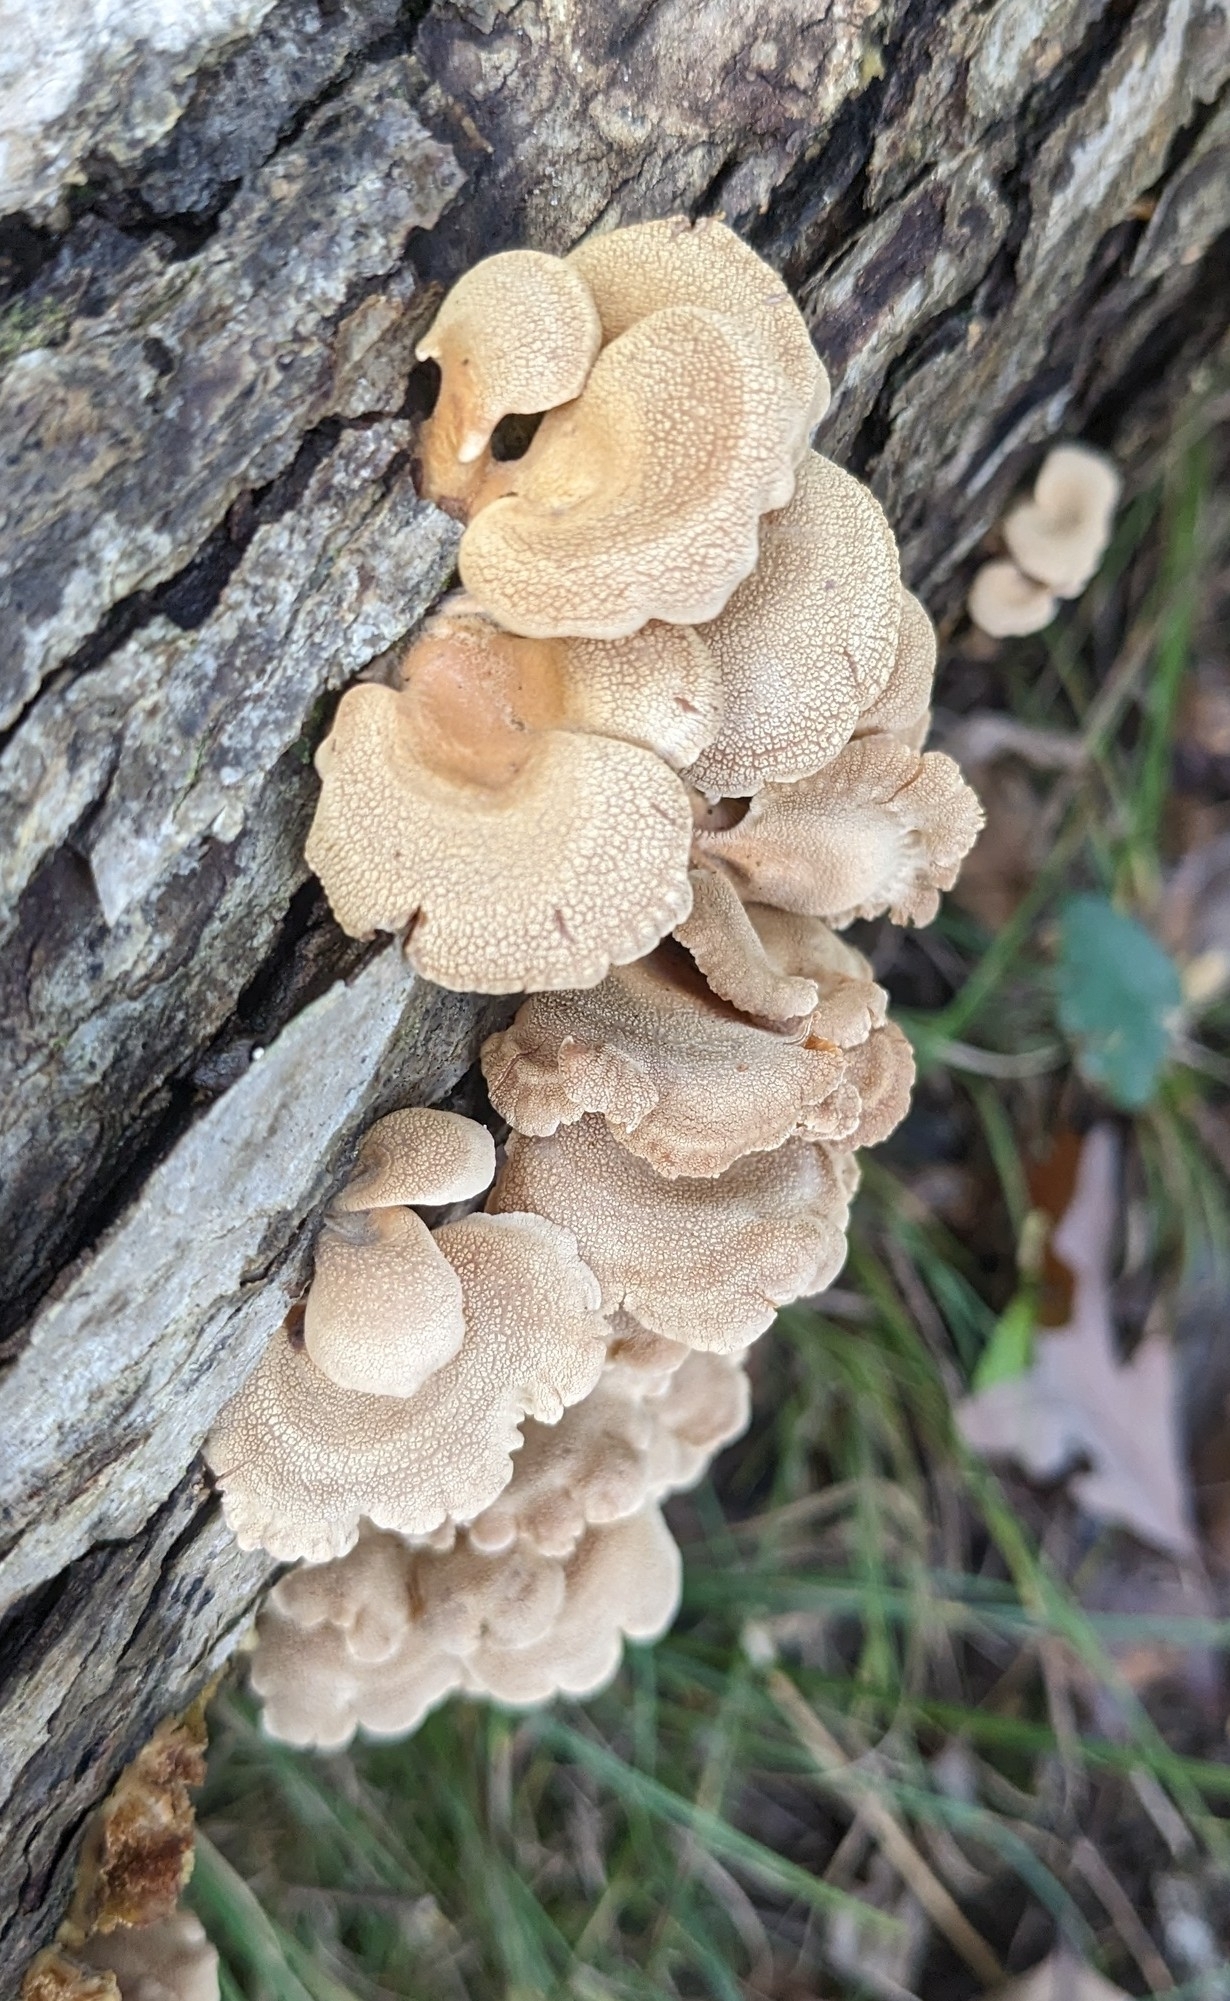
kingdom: Fungi
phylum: Basidiomycota
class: Agaricomycetes
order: Agaricales
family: Mycenaceae
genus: Panellus
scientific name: Panellus stipticus
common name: Bitter oysterling
